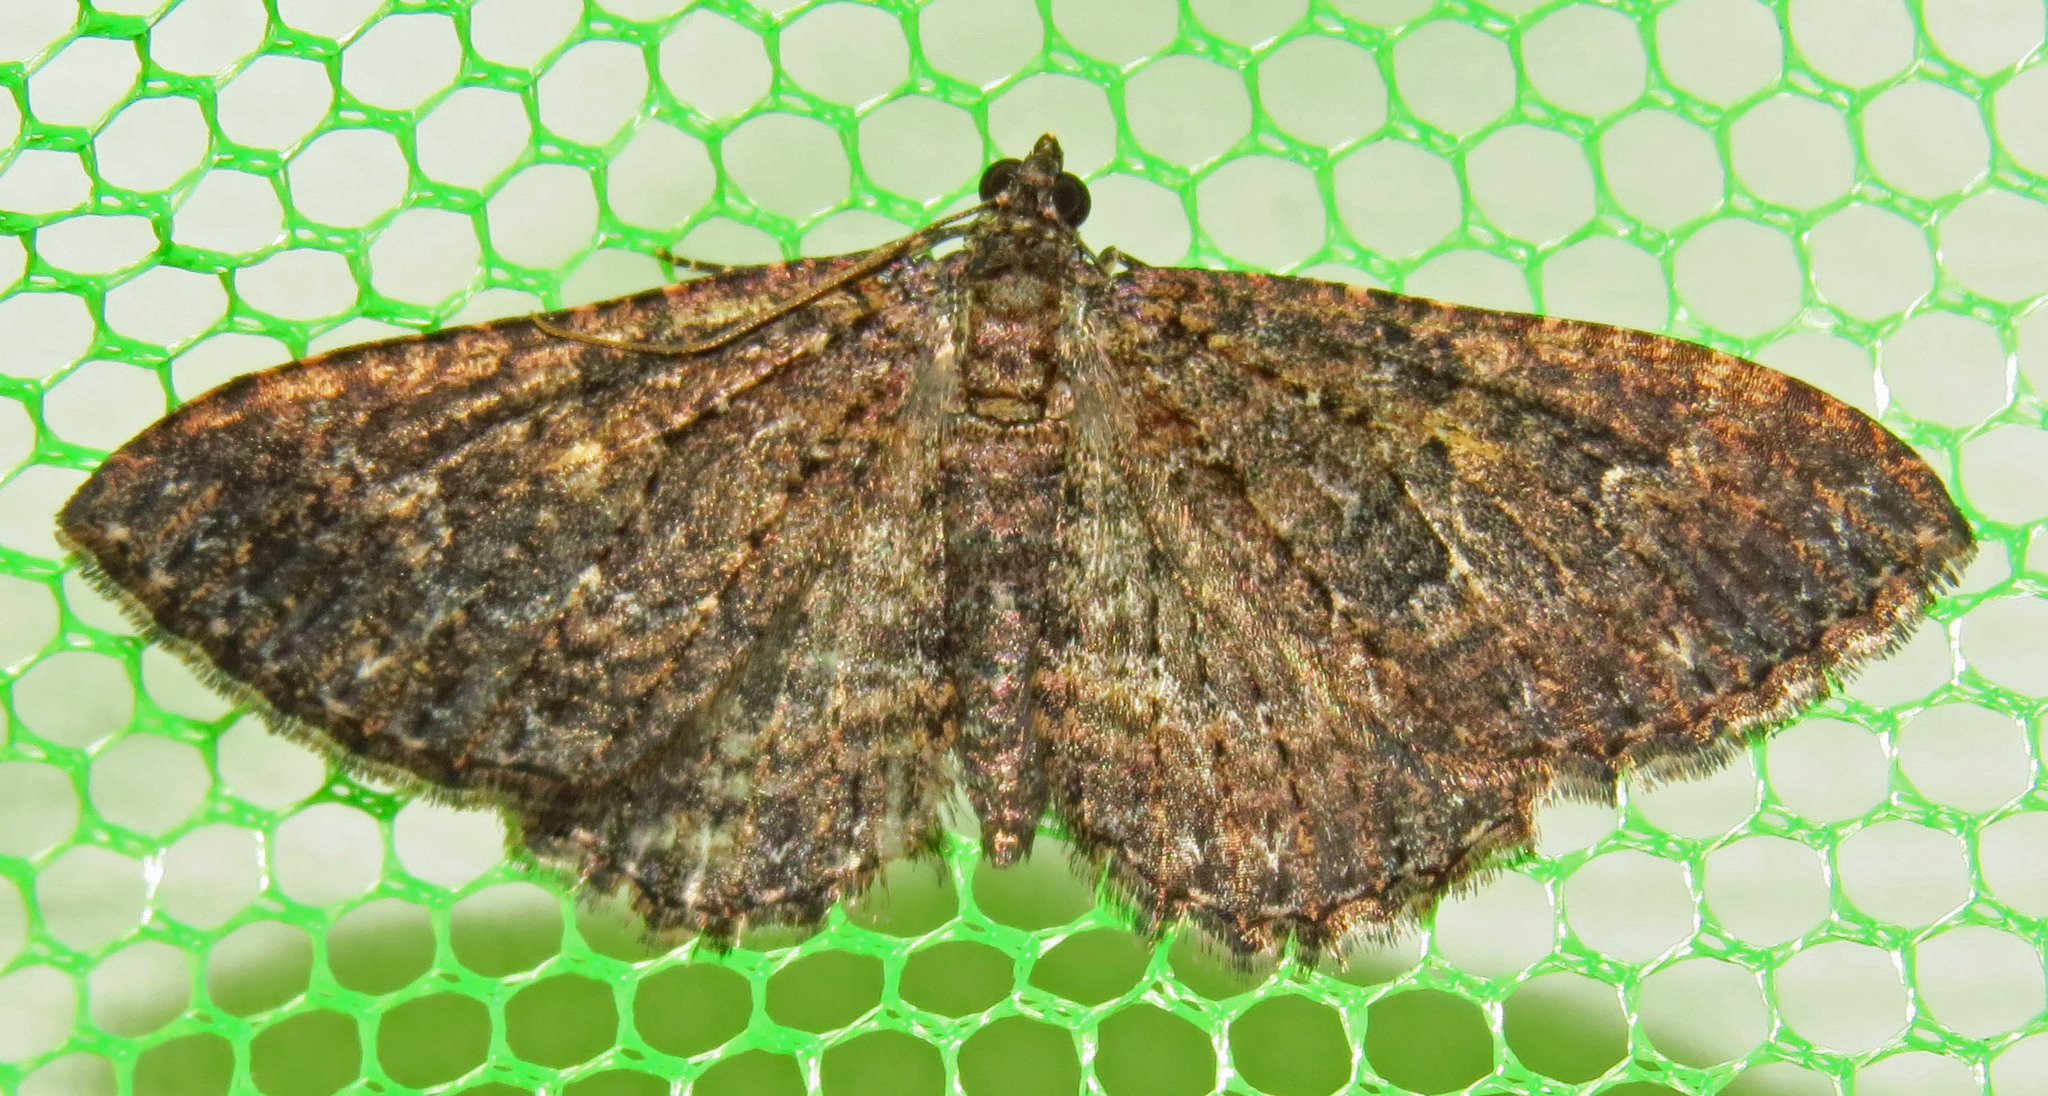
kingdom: Animalia
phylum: Arthropoda
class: Insecta
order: Lepidoptera
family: Geometridae
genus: Disclisioprocta
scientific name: Disclisioprocta stellata
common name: Somber carpet
